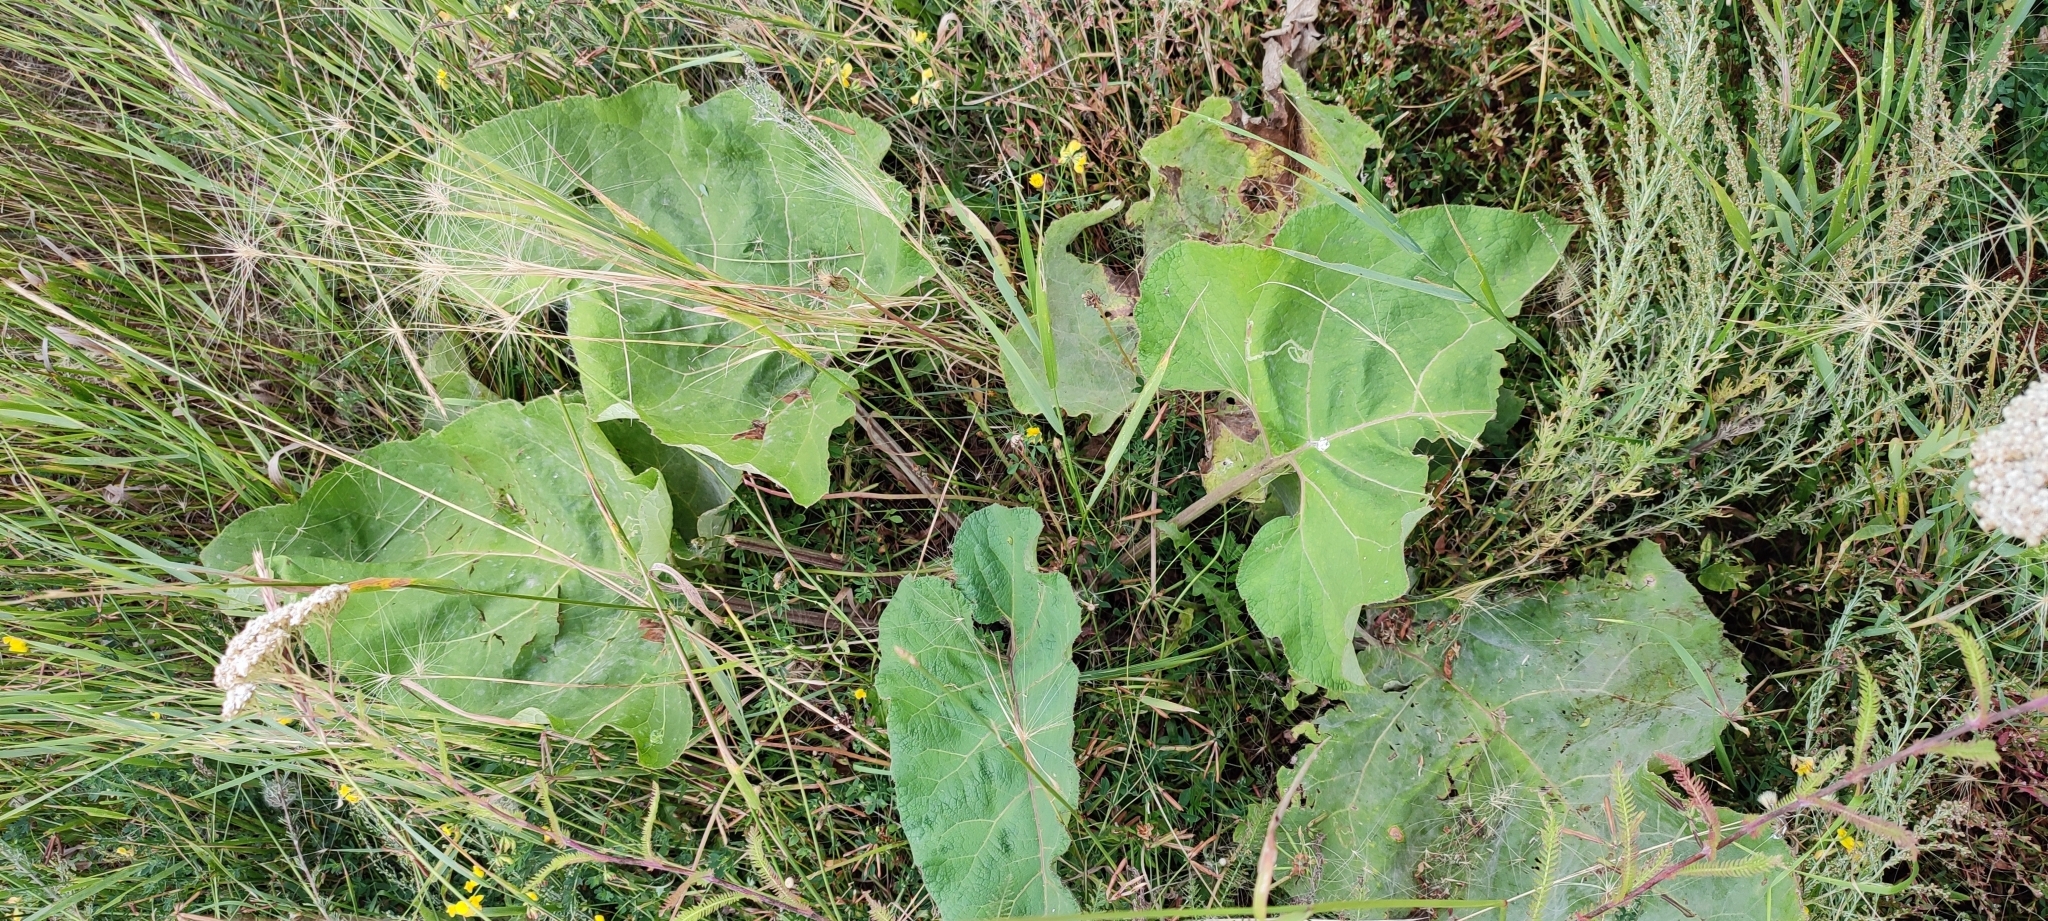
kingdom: Plantae
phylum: Tracheophyta
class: Magnoliopsida
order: Asterales
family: Asteraceae
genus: Arctium
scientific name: Arctium tomentosum
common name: Woolly burdock
